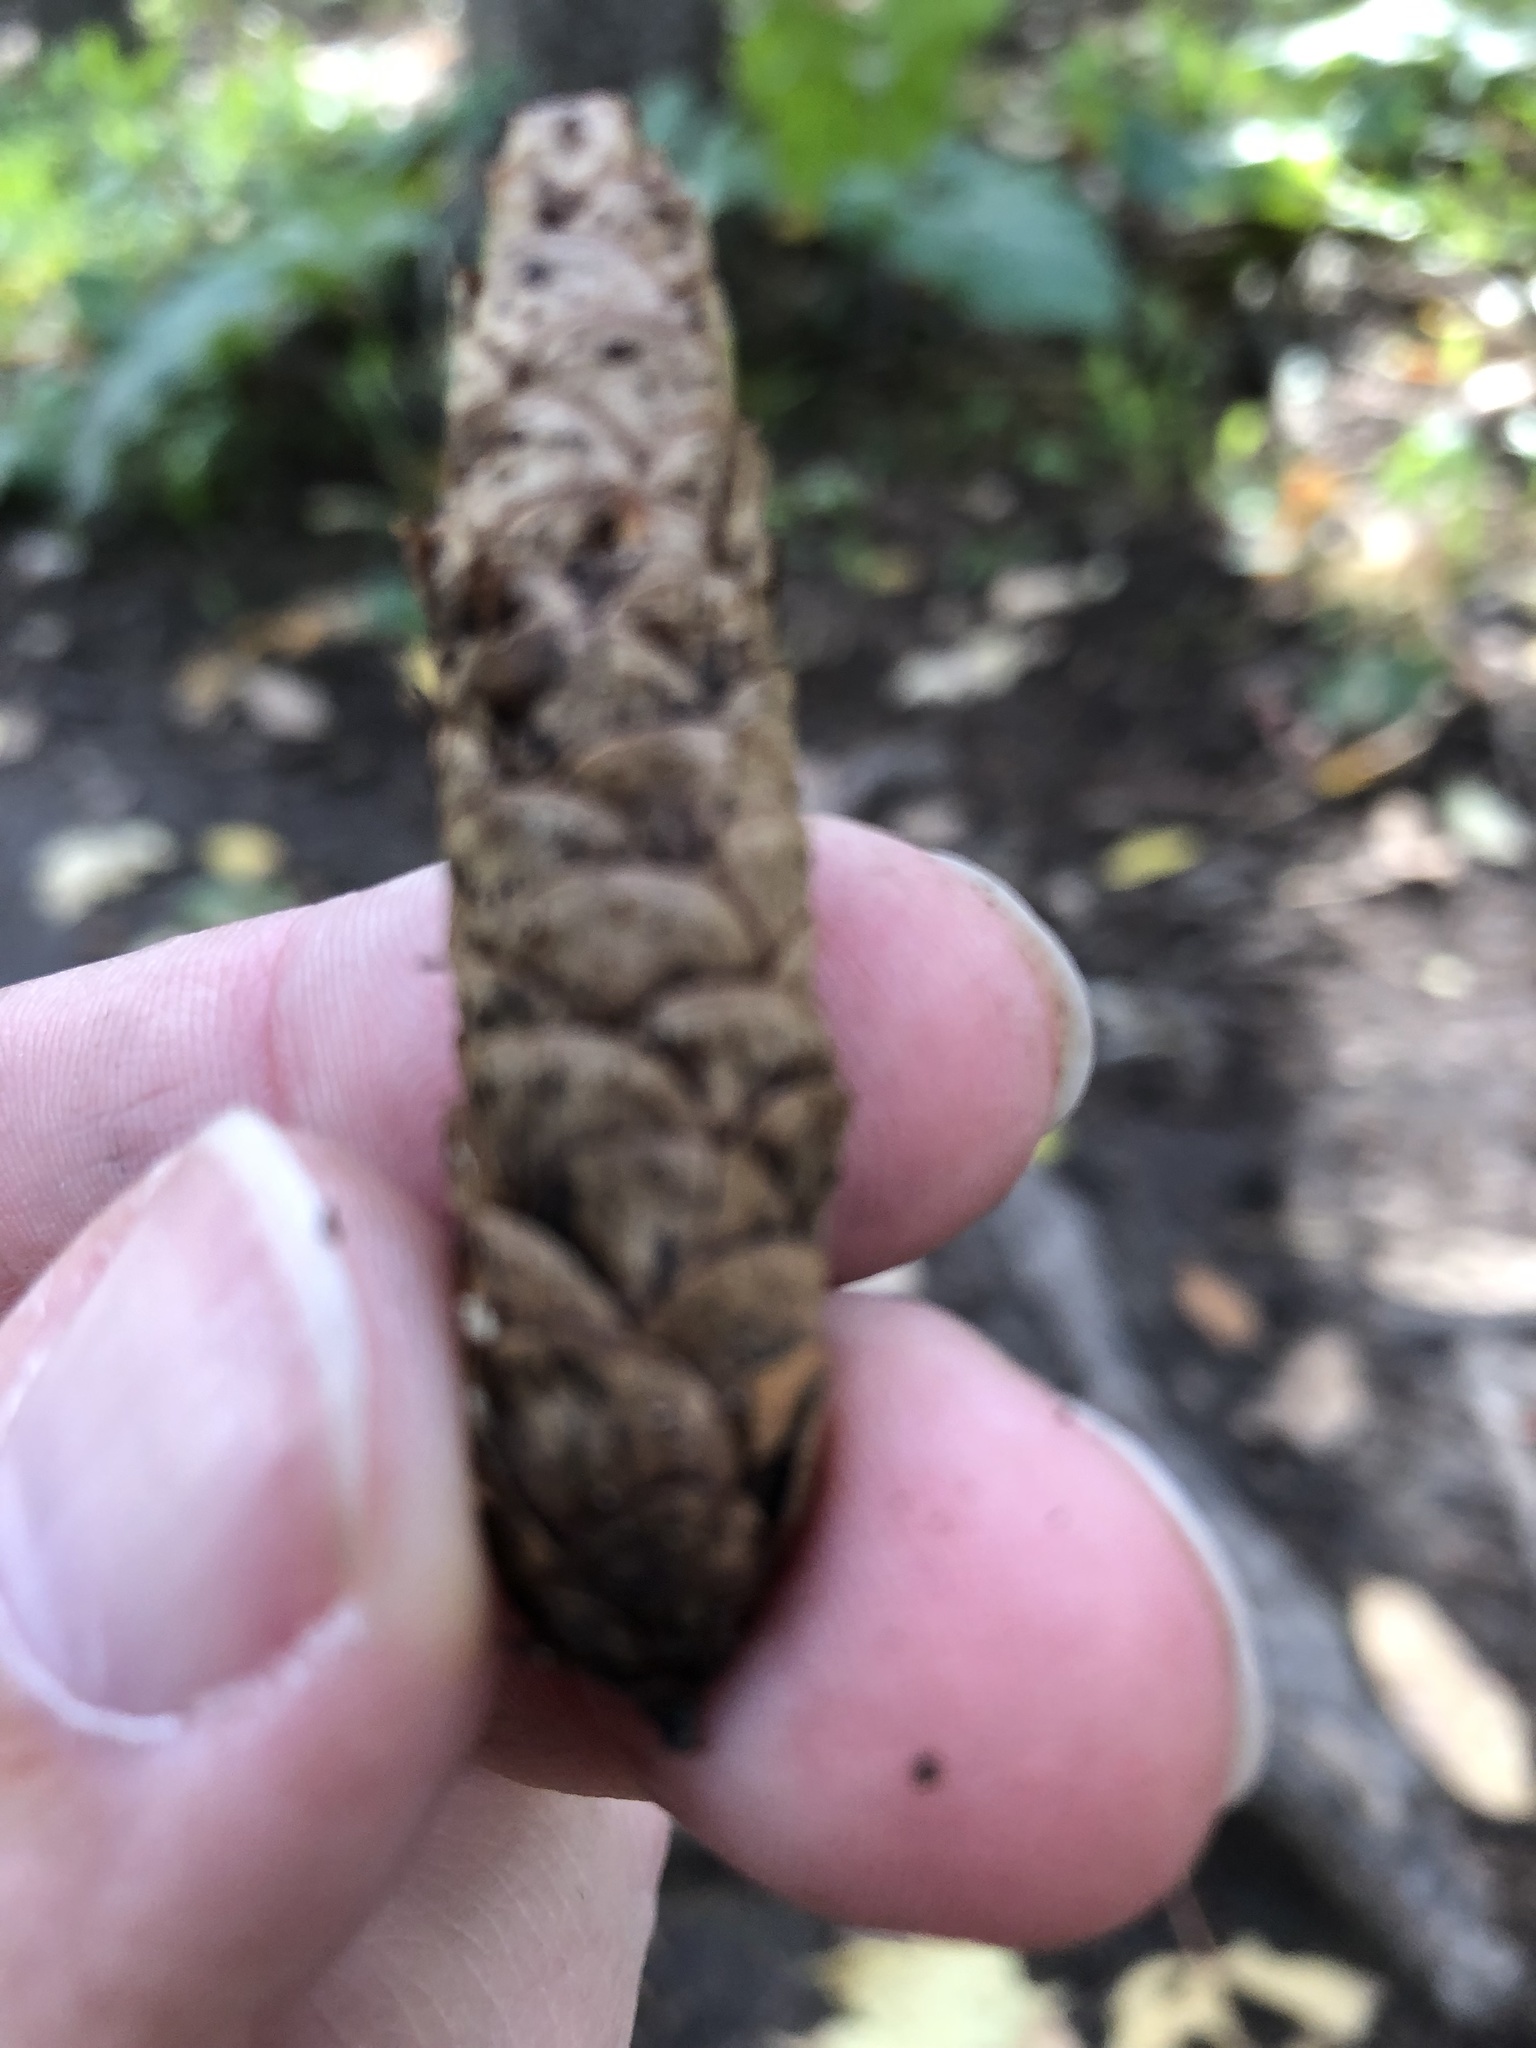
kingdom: Plantae
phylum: Tracheophyta
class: Pinopsida
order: Pinales
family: Pinaceae
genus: Picea
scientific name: Picea glauca
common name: White spruce
